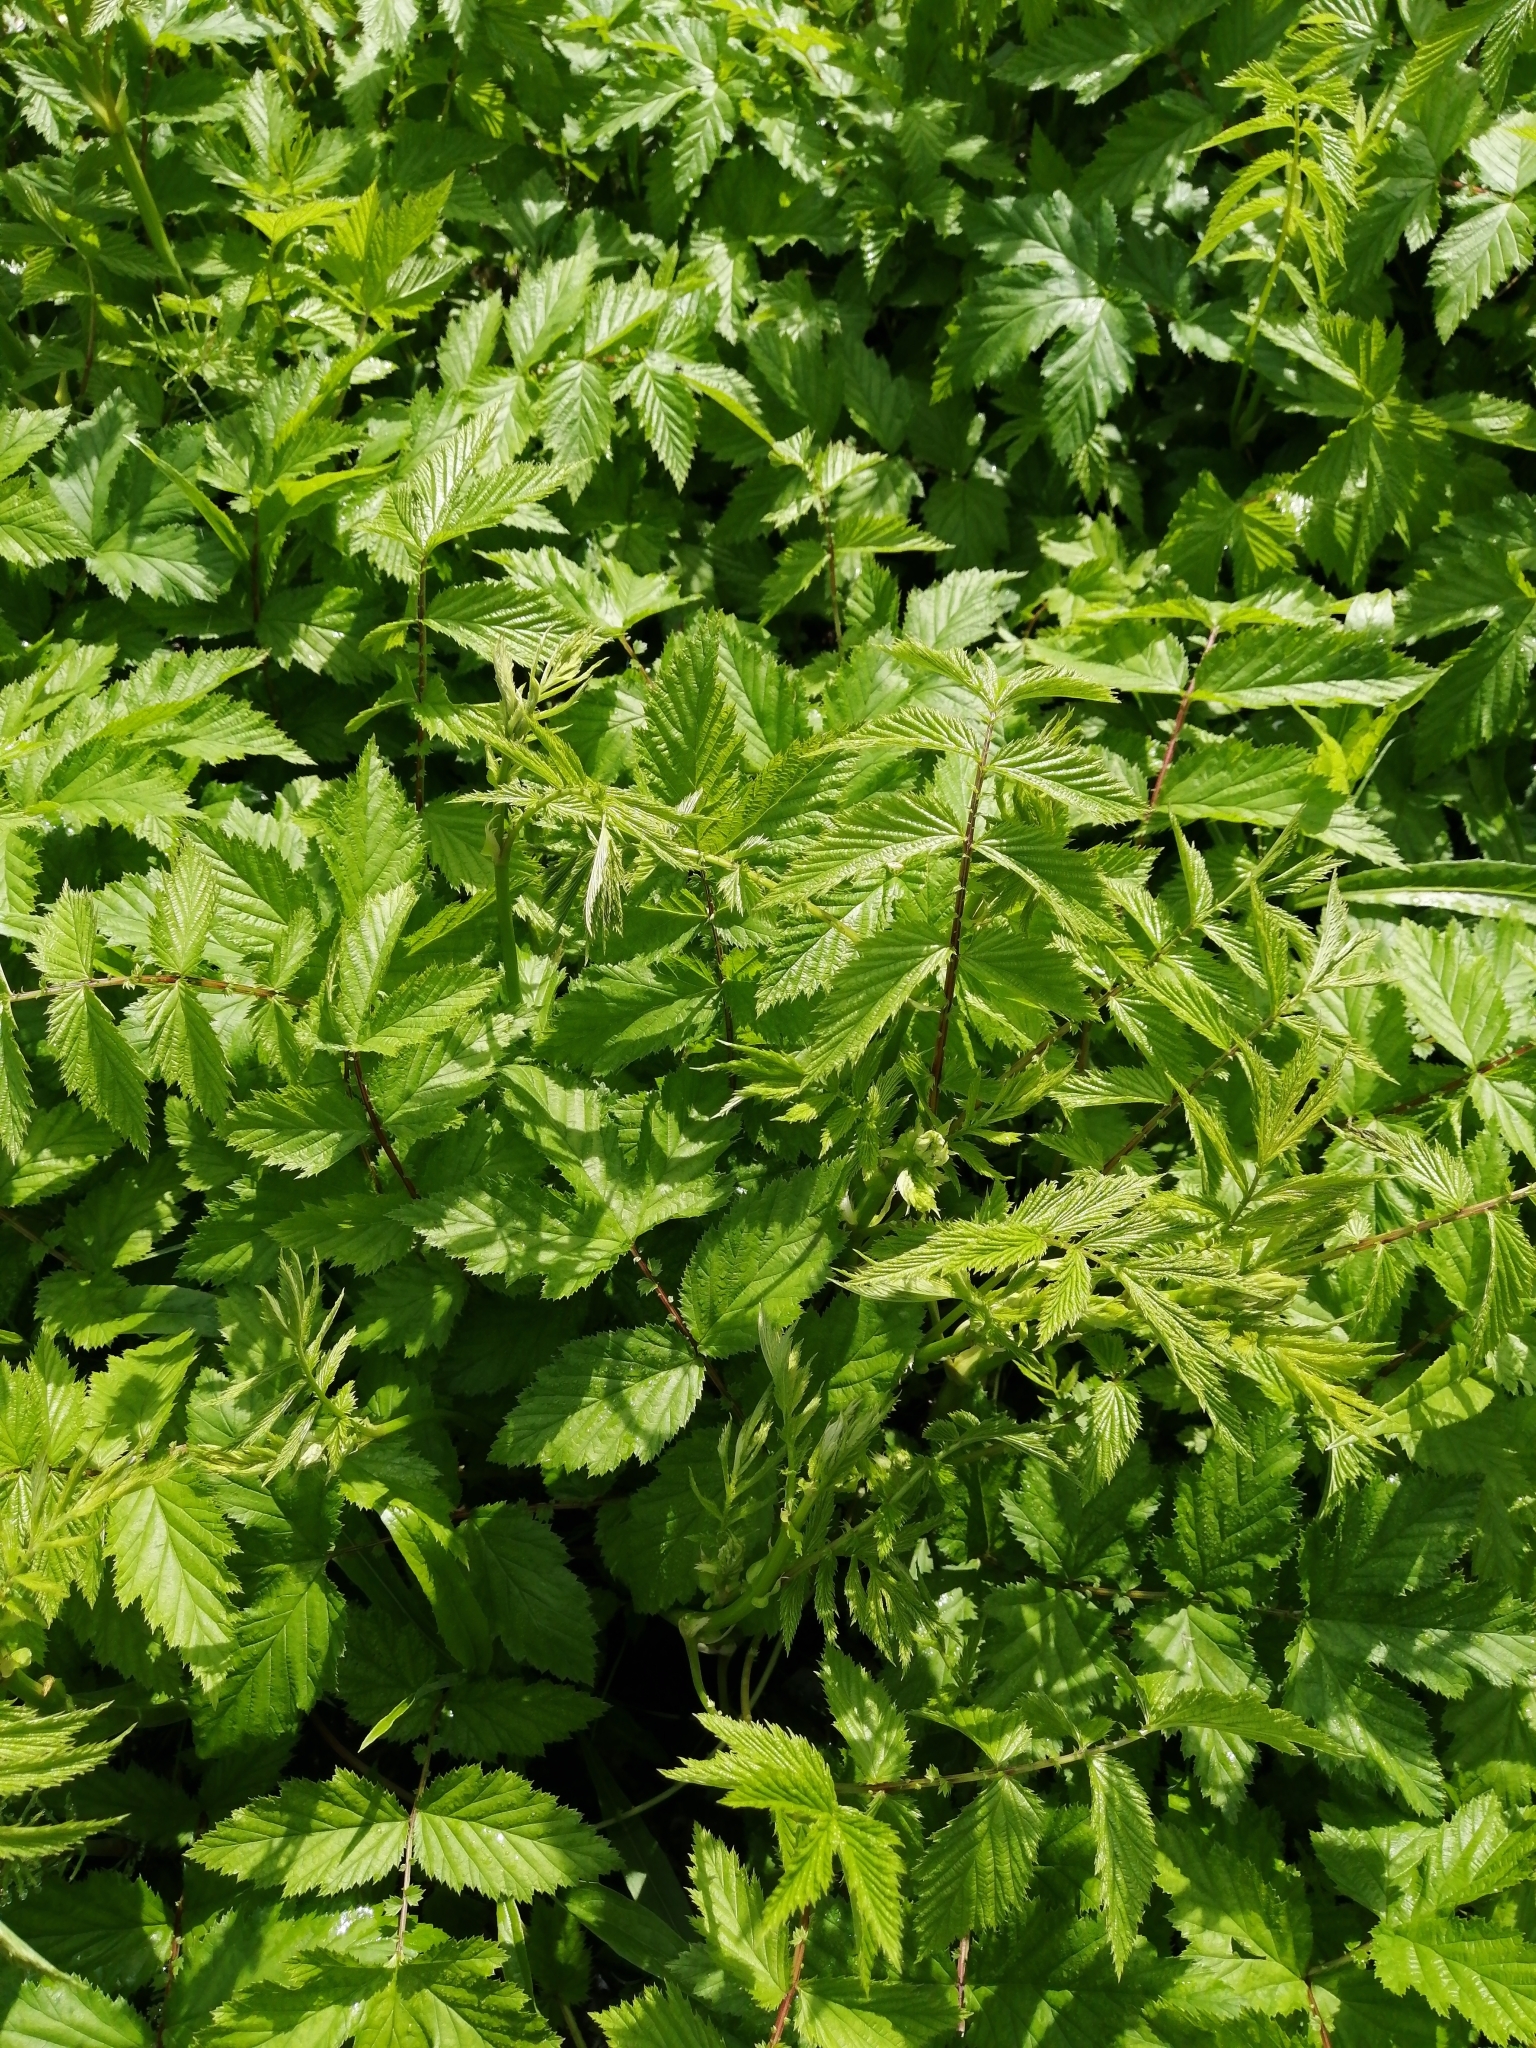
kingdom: Plantae
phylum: Tracheophyta
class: Magnoliopsida
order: Rosales
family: Rosaceae
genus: Filipendula
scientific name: Filipendula ulmaria
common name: Meadowsweet
